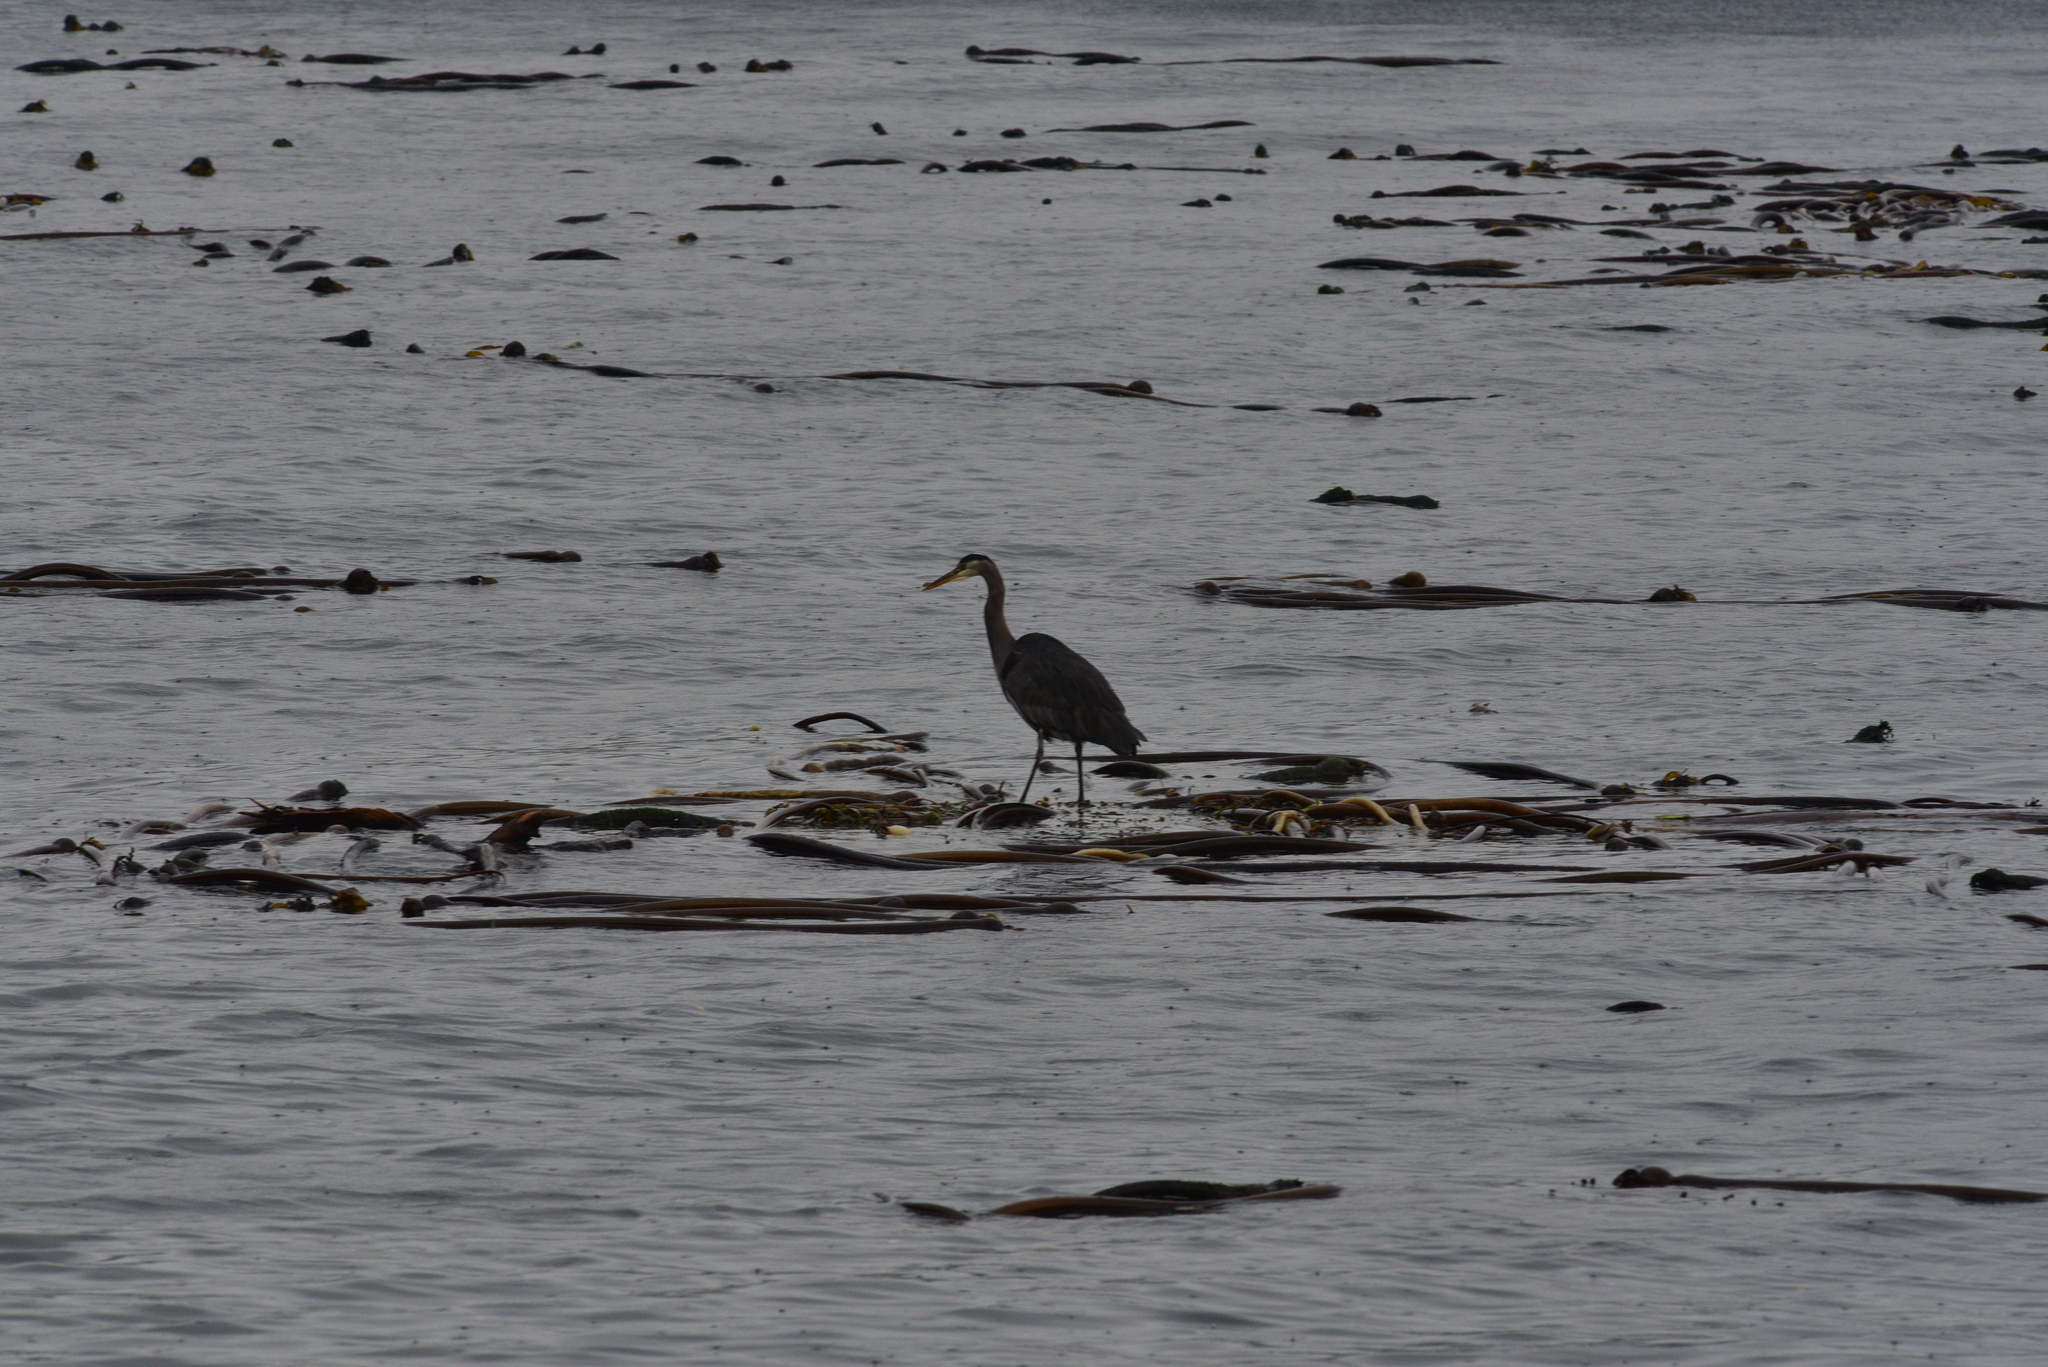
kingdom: Animalia
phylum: Chordata
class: Aves
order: Pelecaniformes
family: Ardeidae
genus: Ardea
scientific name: Ardea herodias
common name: Great blue heron
